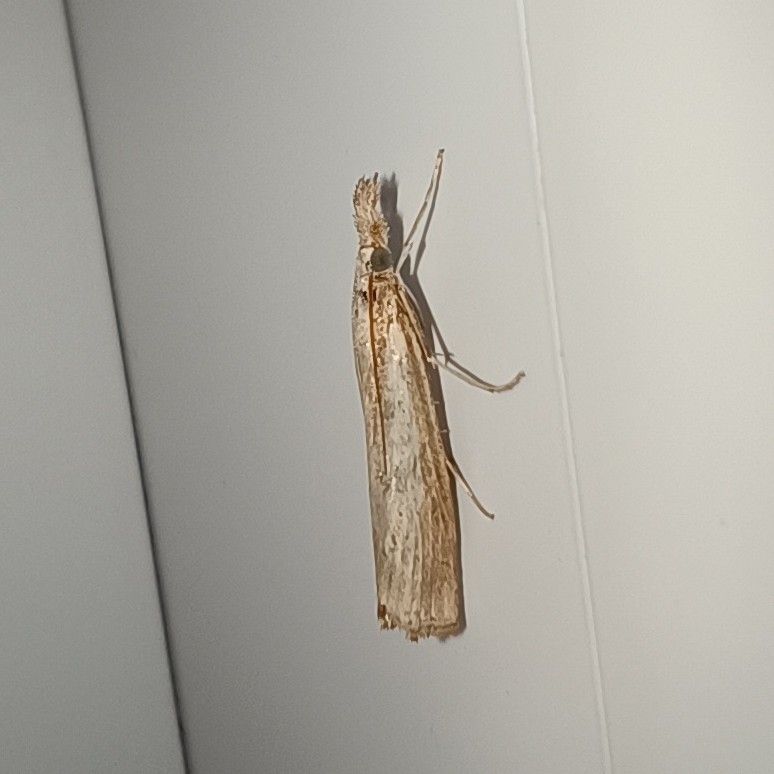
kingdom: Animalia
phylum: Arthropoda
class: Insecta
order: Lepidoptera
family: Crambidae
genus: Agriphila
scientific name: Agriphila inquinatella
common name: Barred grass-veneer
